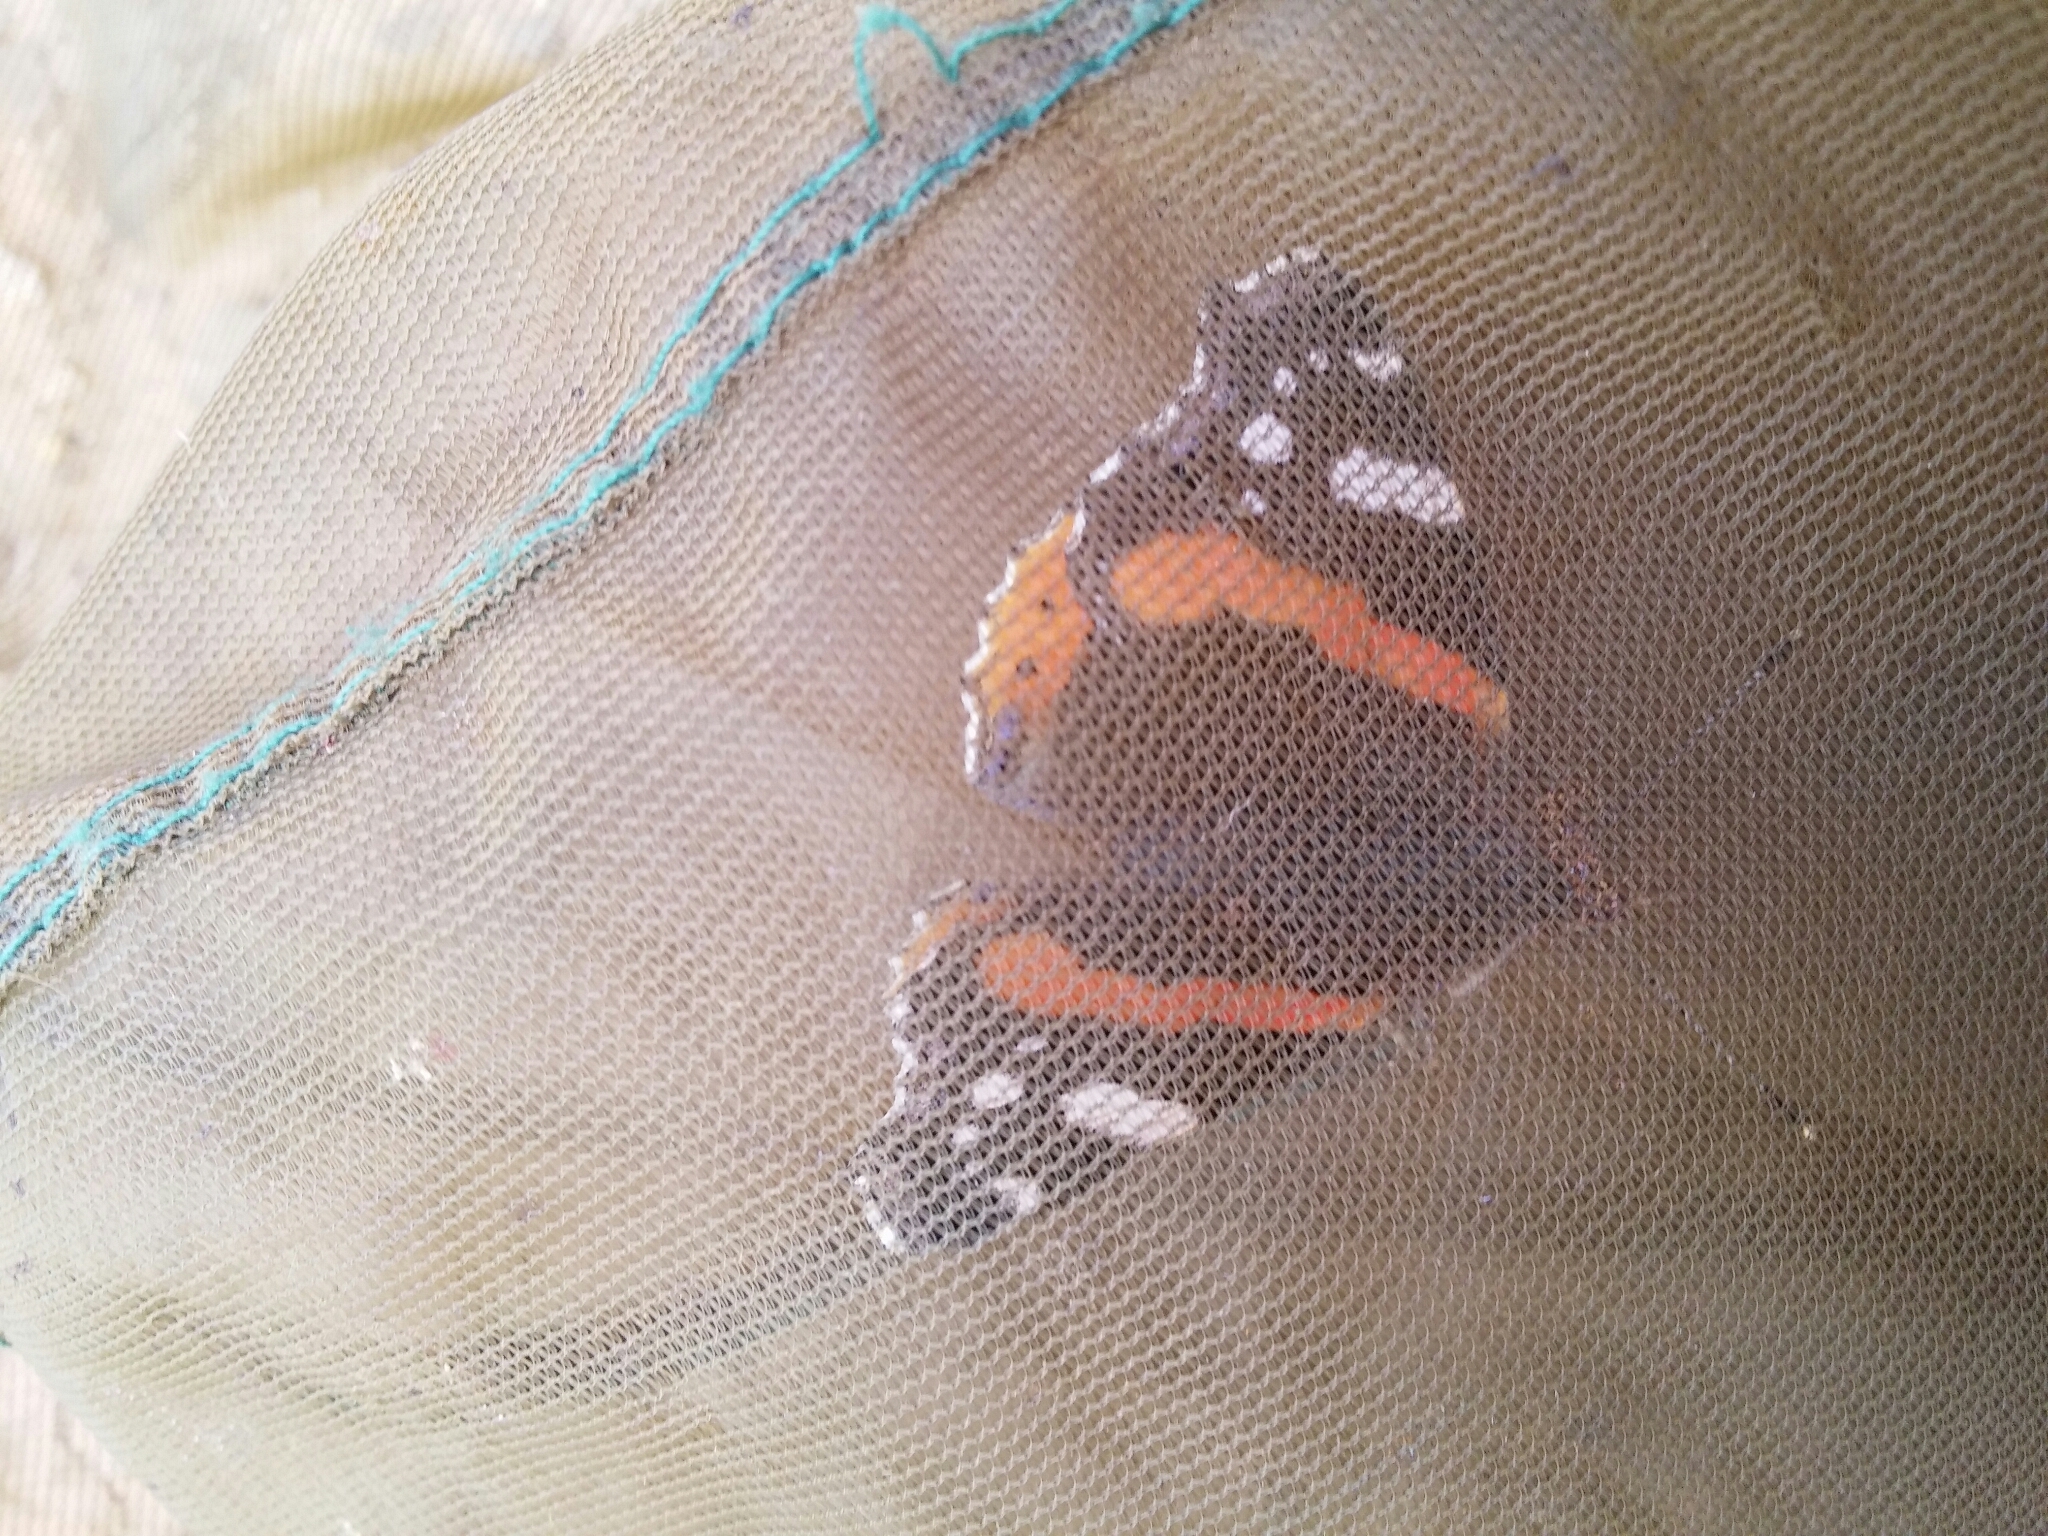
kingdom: Animalia
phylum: Arthropoda
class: Insecta
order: Lepidoptera
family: Nymphalidae
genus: Vanessa
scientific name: Vanessa atalanta
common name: Red admiral
